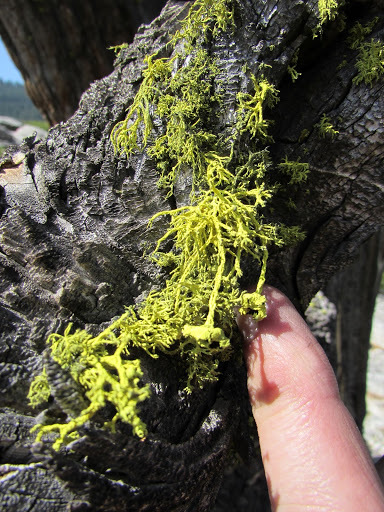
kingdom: Fungi
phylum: Ascomycota
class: Lecanoromycetes
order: Lecanorales
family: Parmeliaceae
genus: Letharia
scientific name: Letharia columbiana
